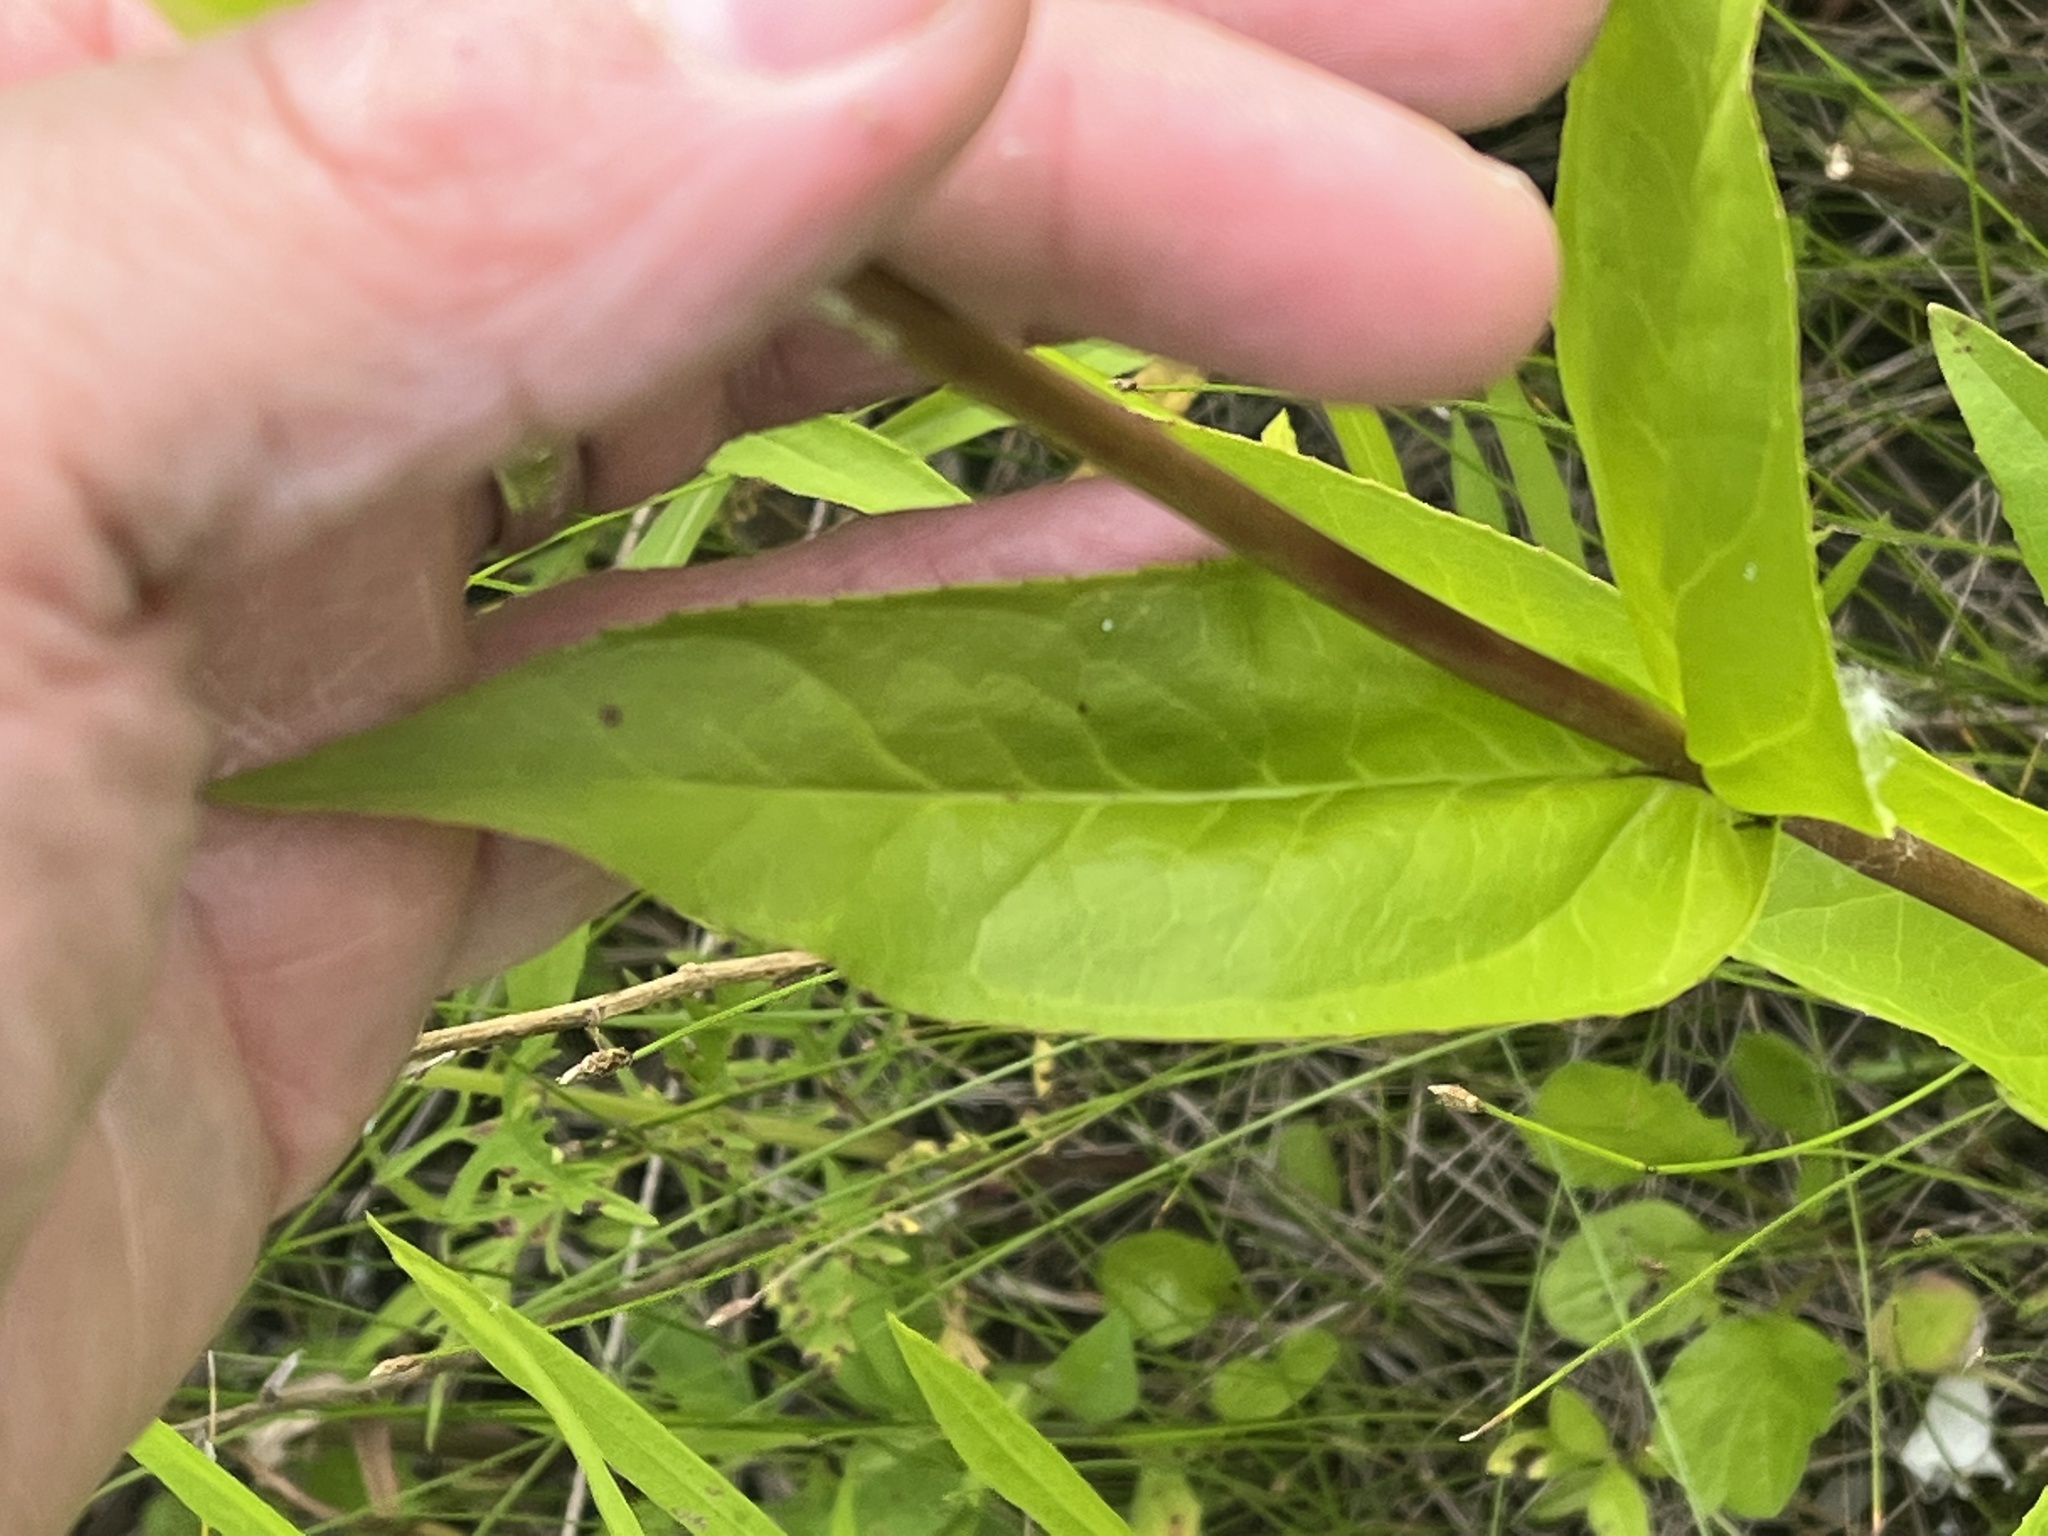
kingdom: Plantae
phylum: Tracheophyta
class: Magnoliopsida
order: Lamiales
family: Plantaginaceae
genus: Penstemon
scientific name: Penstemon digitalis
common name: Foxglove beardtongue
